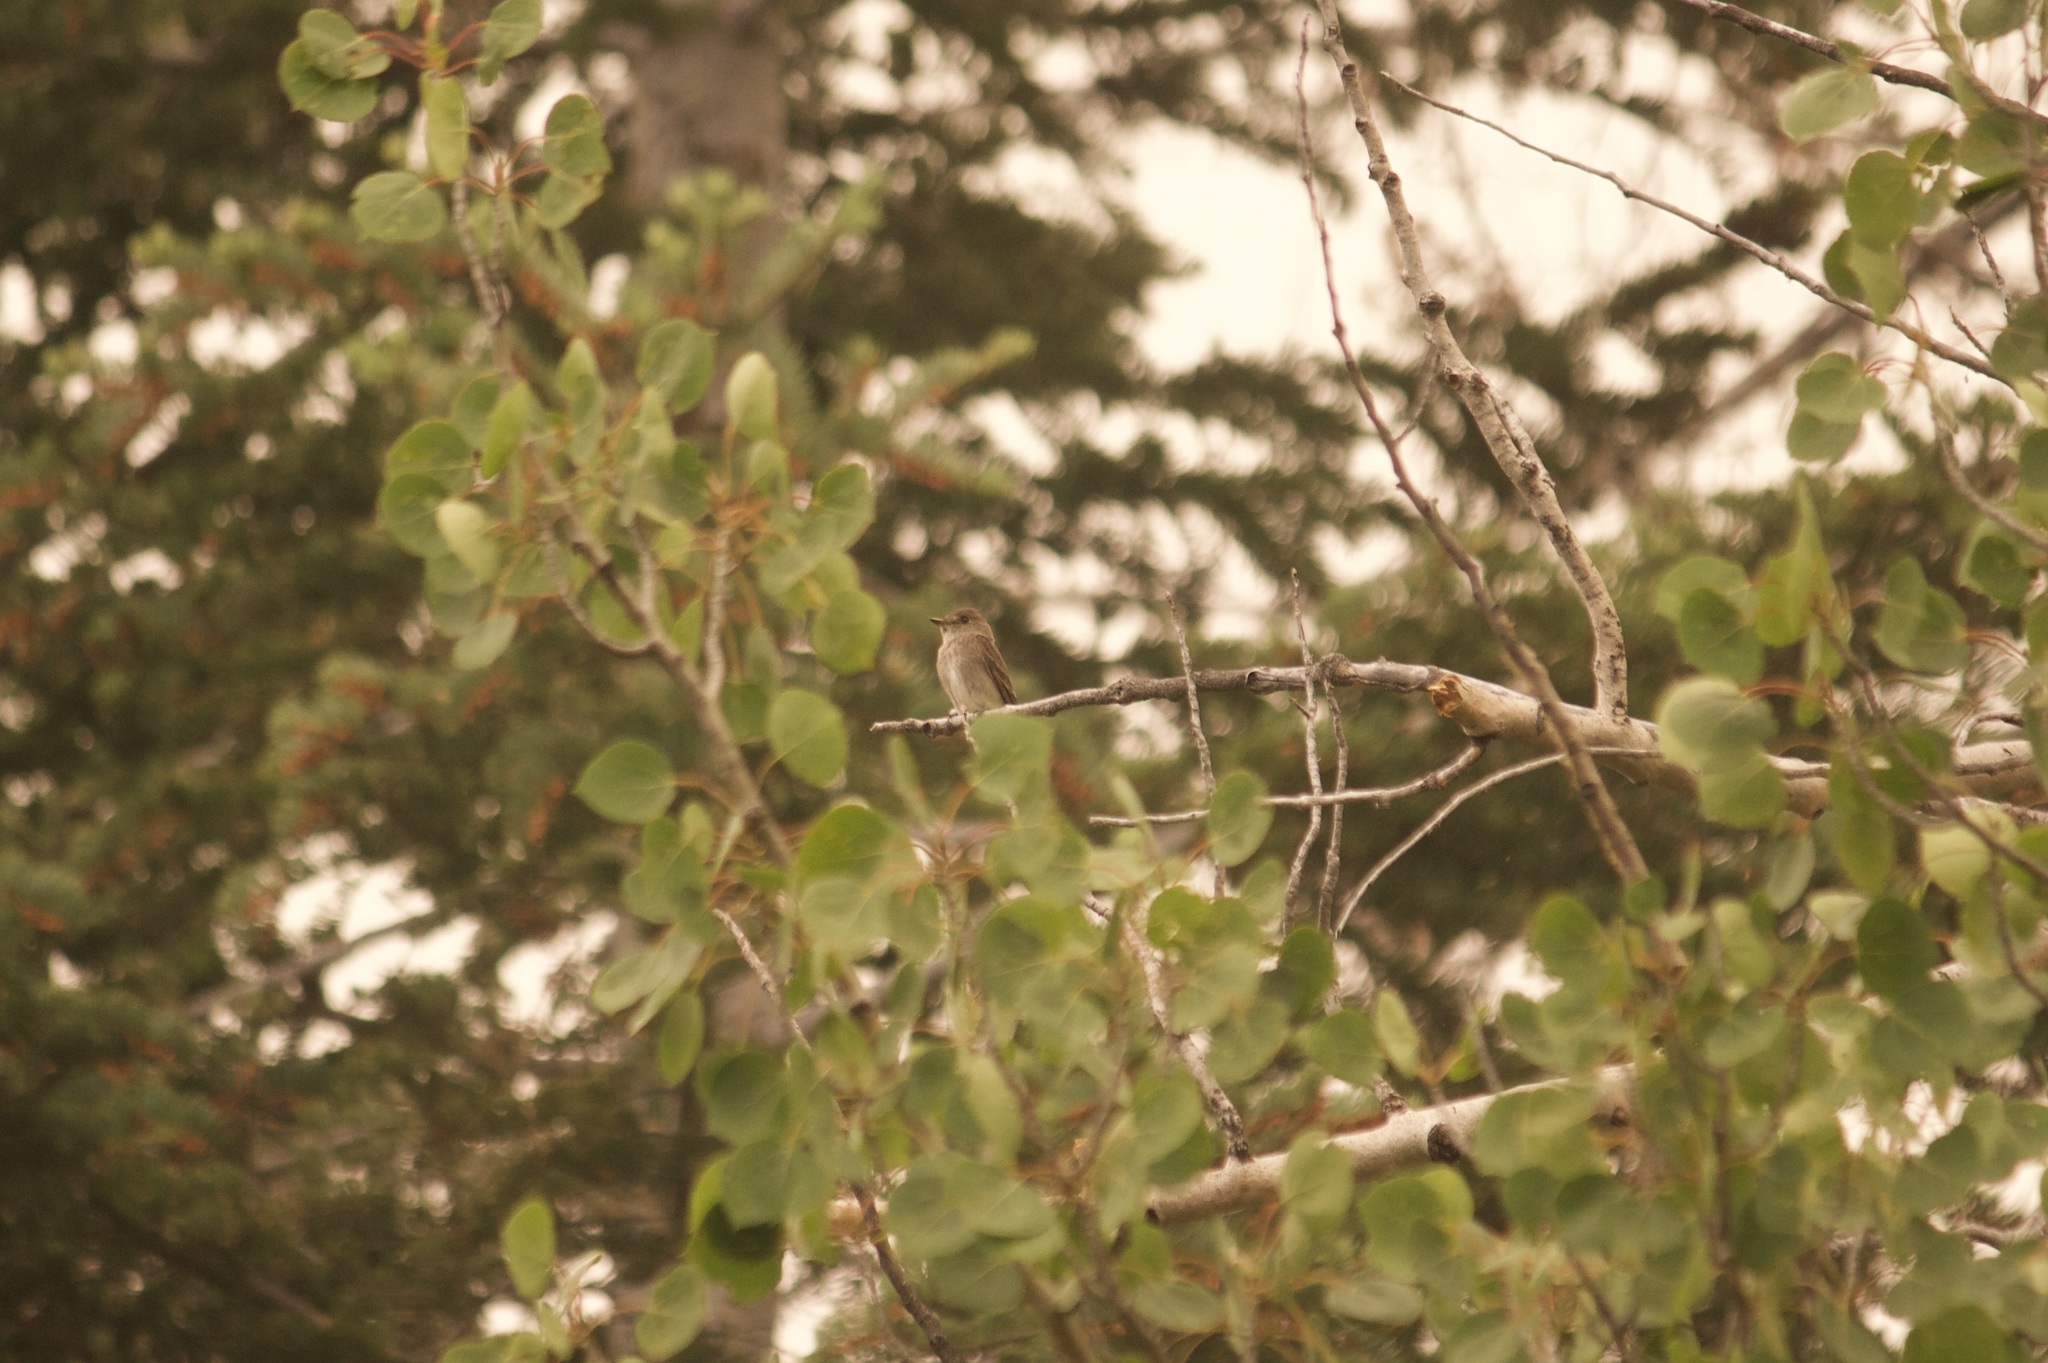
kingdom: Animalia
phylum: Chordata
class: Aves
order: Passeriformes
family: Tyrannidae
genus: Contopus
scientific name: Contopus sordidulus
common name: Western wood-pewee
